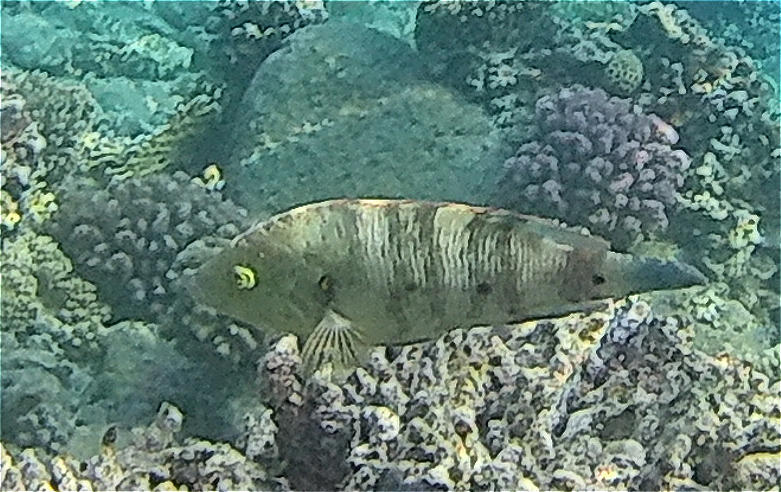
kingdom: Animalia
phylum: Chordata
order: Perciformes
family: Labridae
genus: Cheilinus
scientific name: Cheilinus lunulatus
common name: Broomtail wrasse
